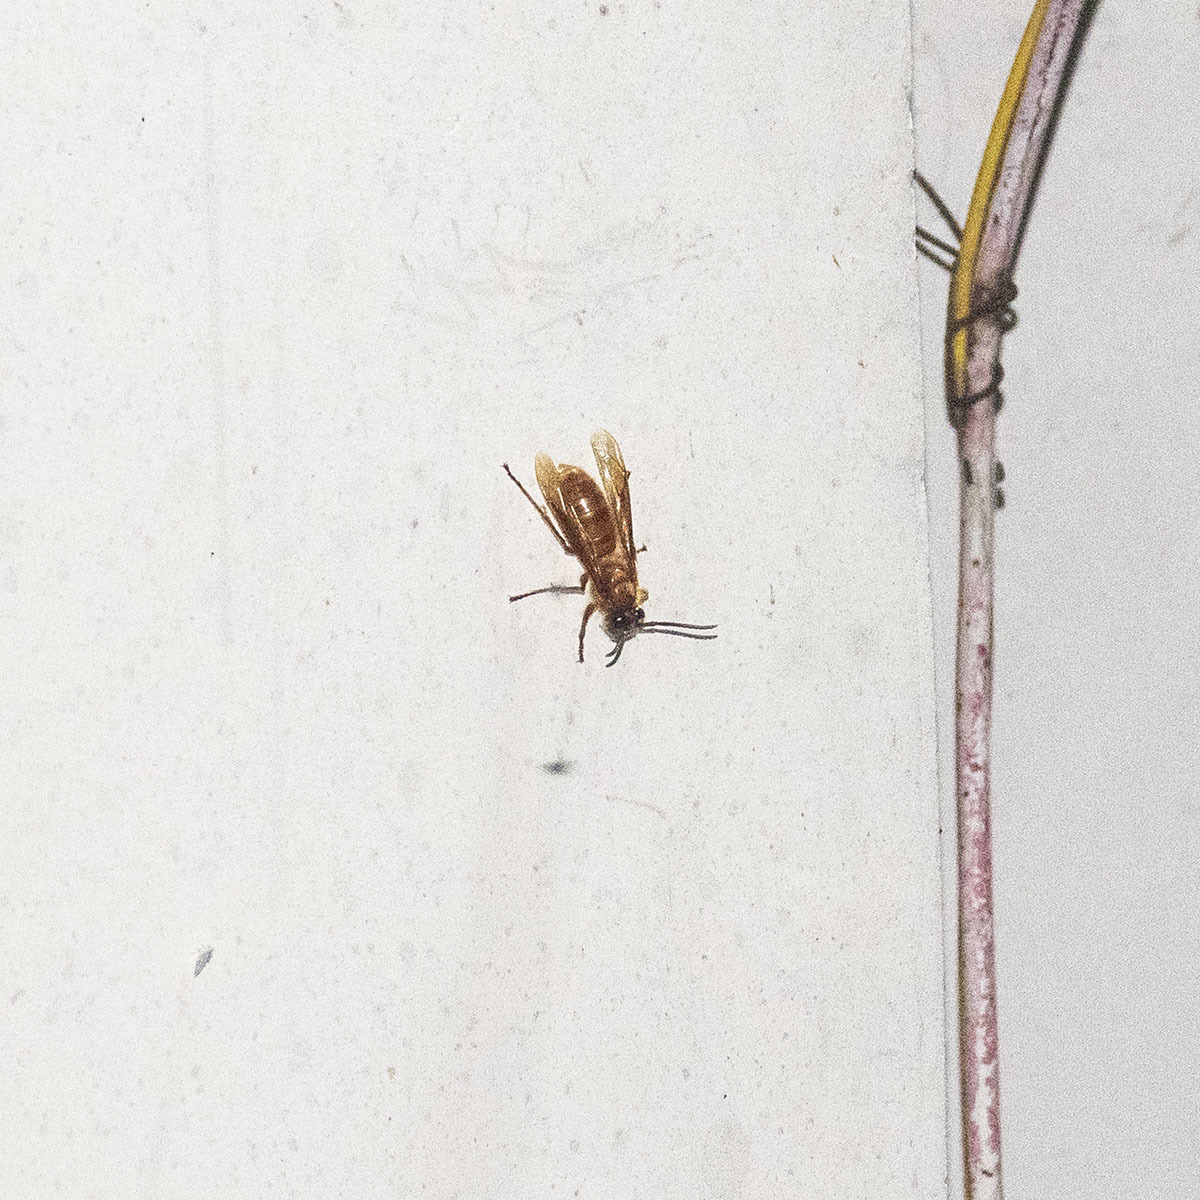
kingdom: Animalia
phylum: Arthropoda
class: Insecta
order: Hymenoptera
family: Vespidae
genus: Provespa
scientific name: Provespa barthelemyi
